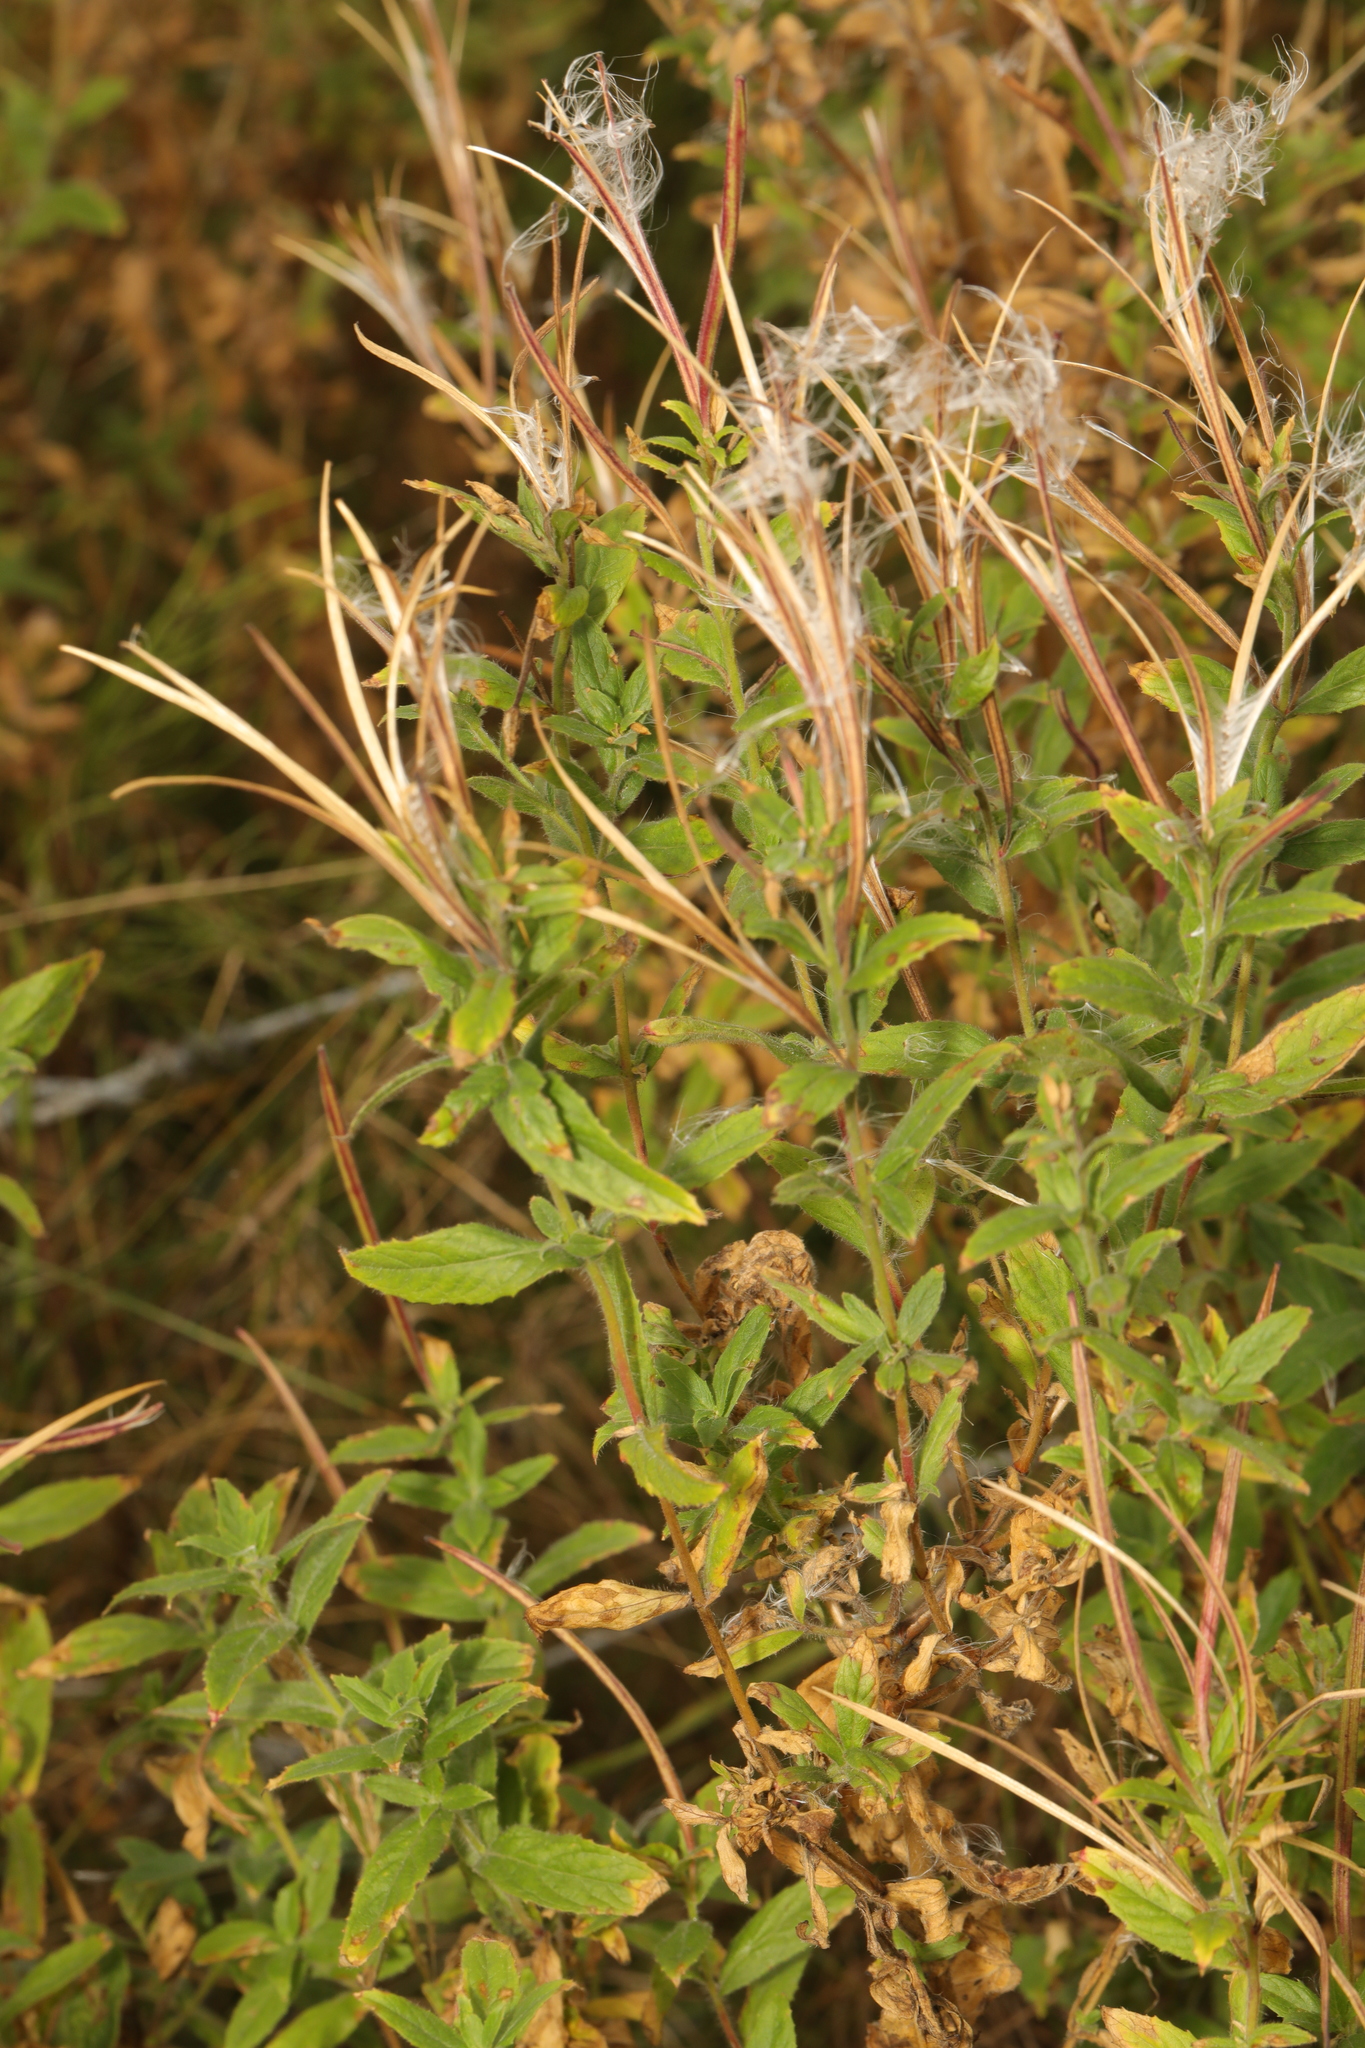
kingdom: Plantae
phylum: Tracheophyta
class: Magnoliopsida
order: Myrtales
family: Onagraceae
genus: Epilobium
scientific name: Epilobium hirsutum
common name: Great willowherb
